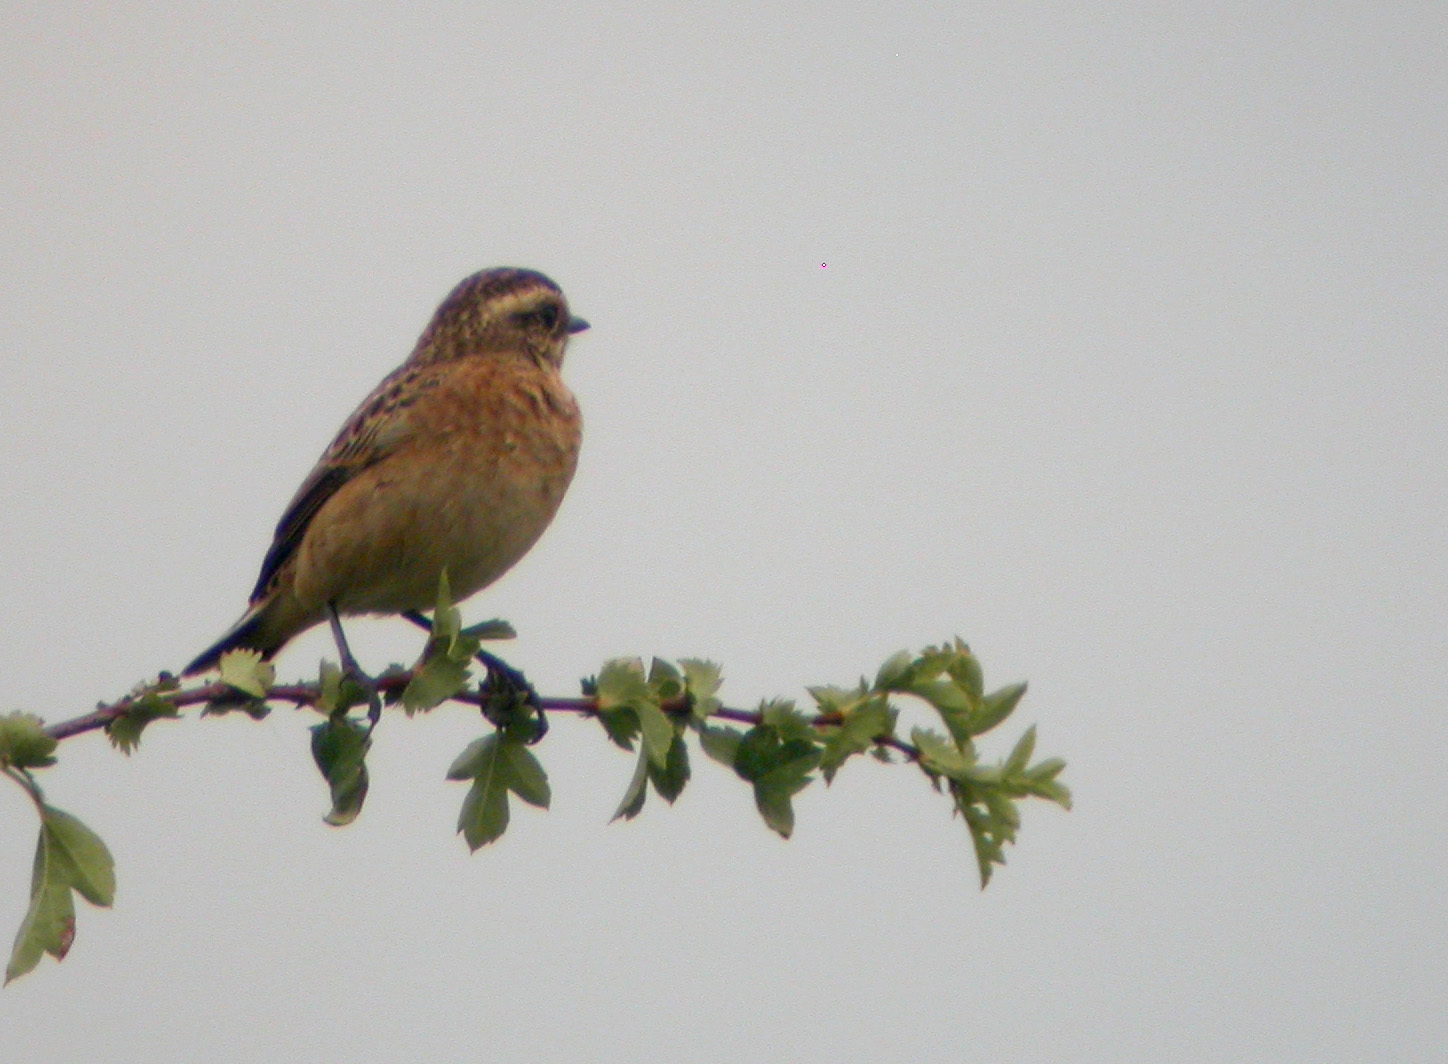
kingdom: Animalia
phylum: Chordata
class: Aves
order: Passeriformes
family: Muscicapidae
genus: Saxicola
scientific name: Saxicola rubetra
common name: Whinchat
